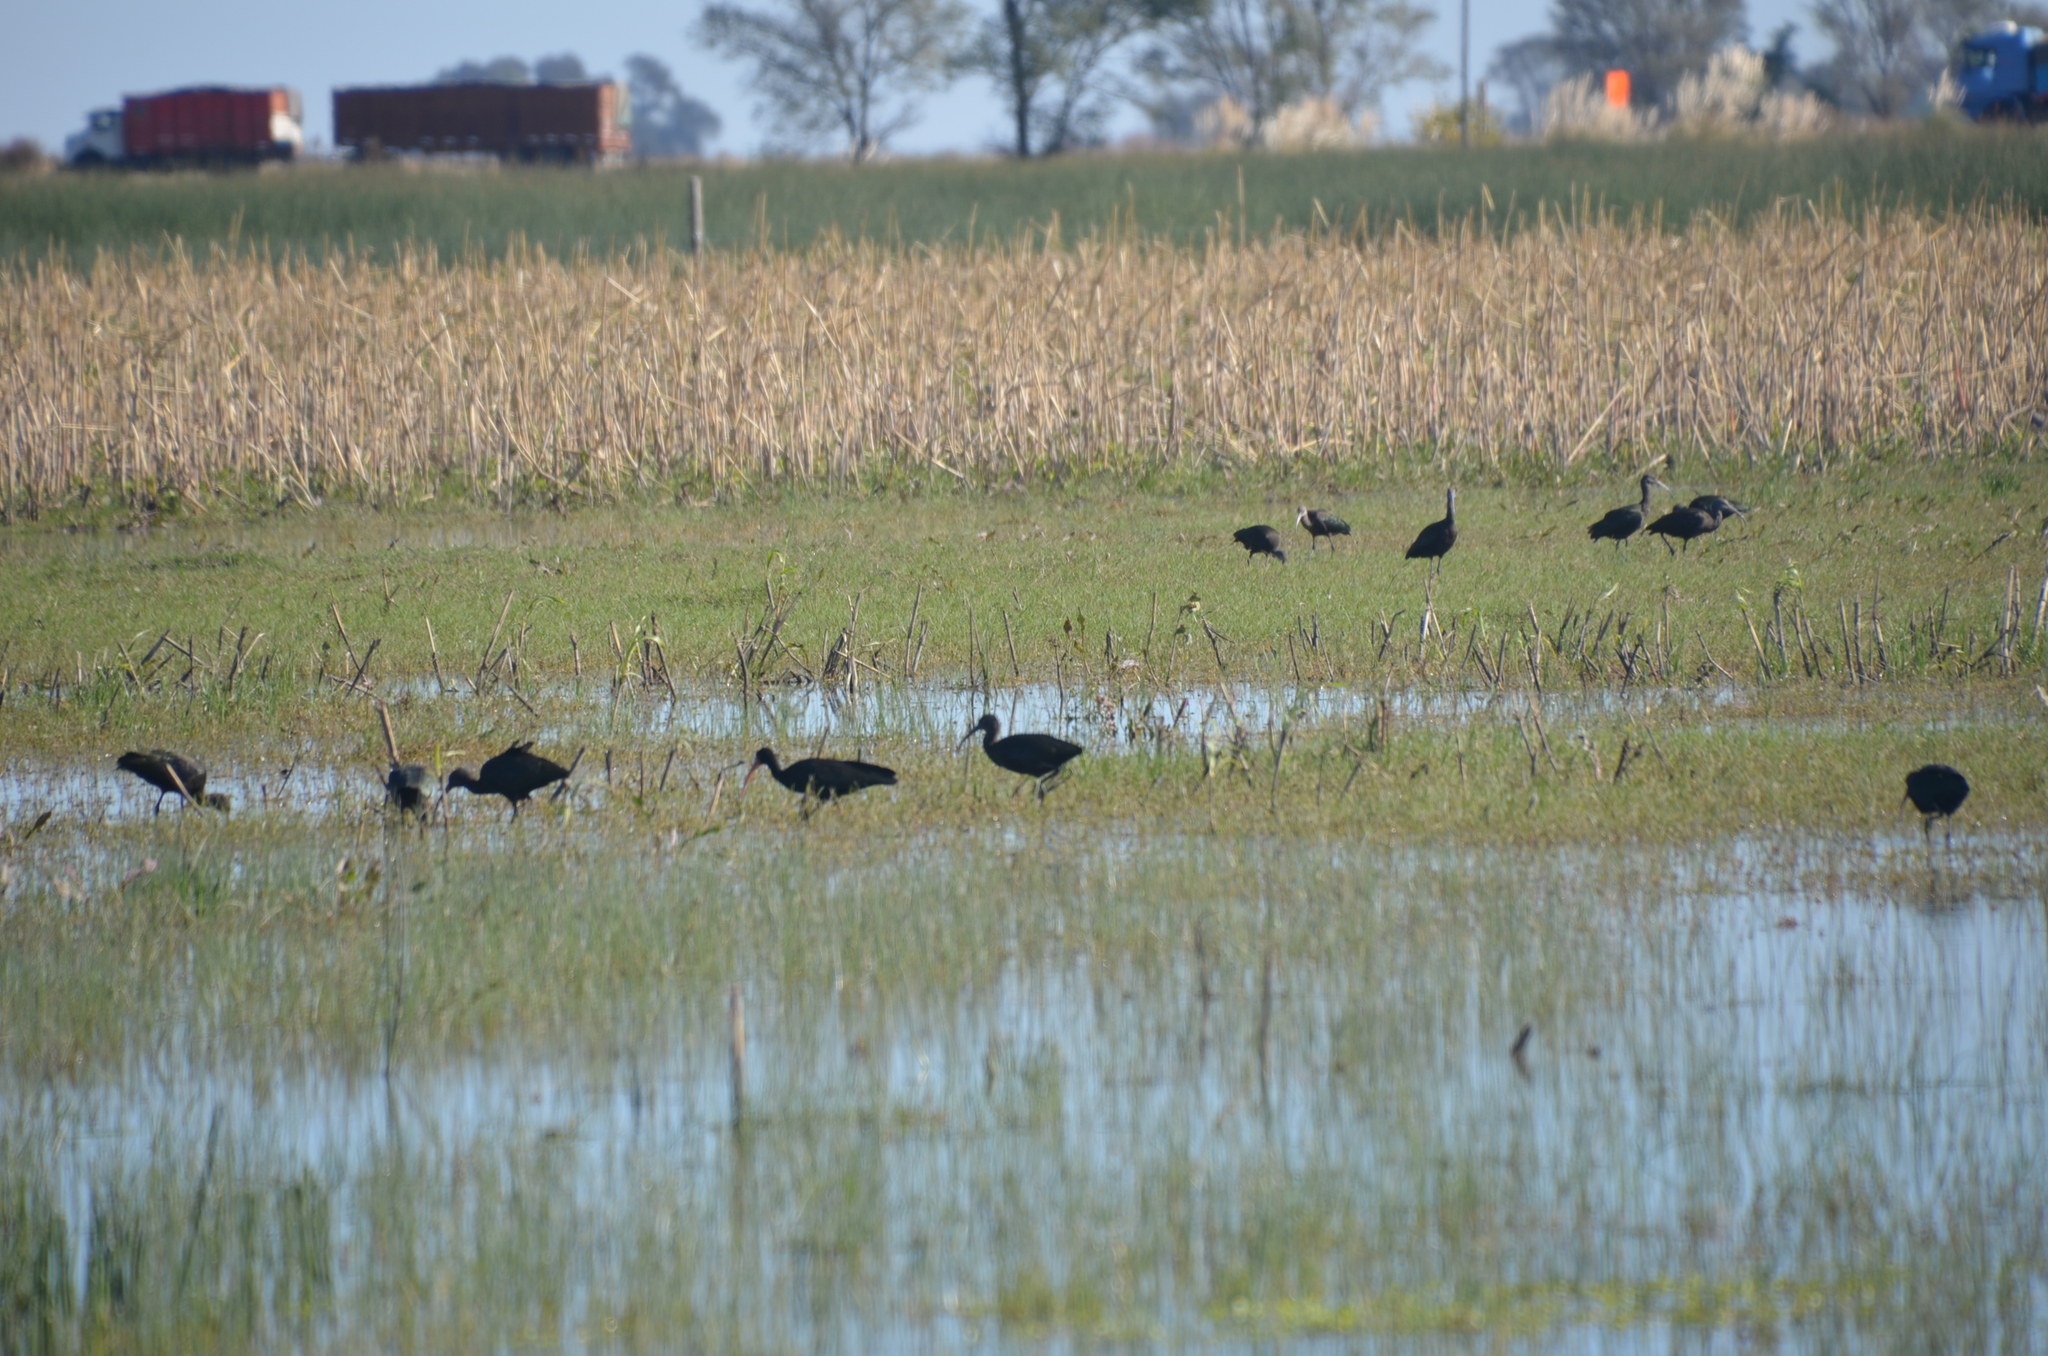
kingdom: Animalia
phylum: Chordata
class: Aves
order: Pelecaniformes
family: Threskiornithidae
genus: Plegadis
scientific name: Plegadis chihi
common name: White-faced ibis
